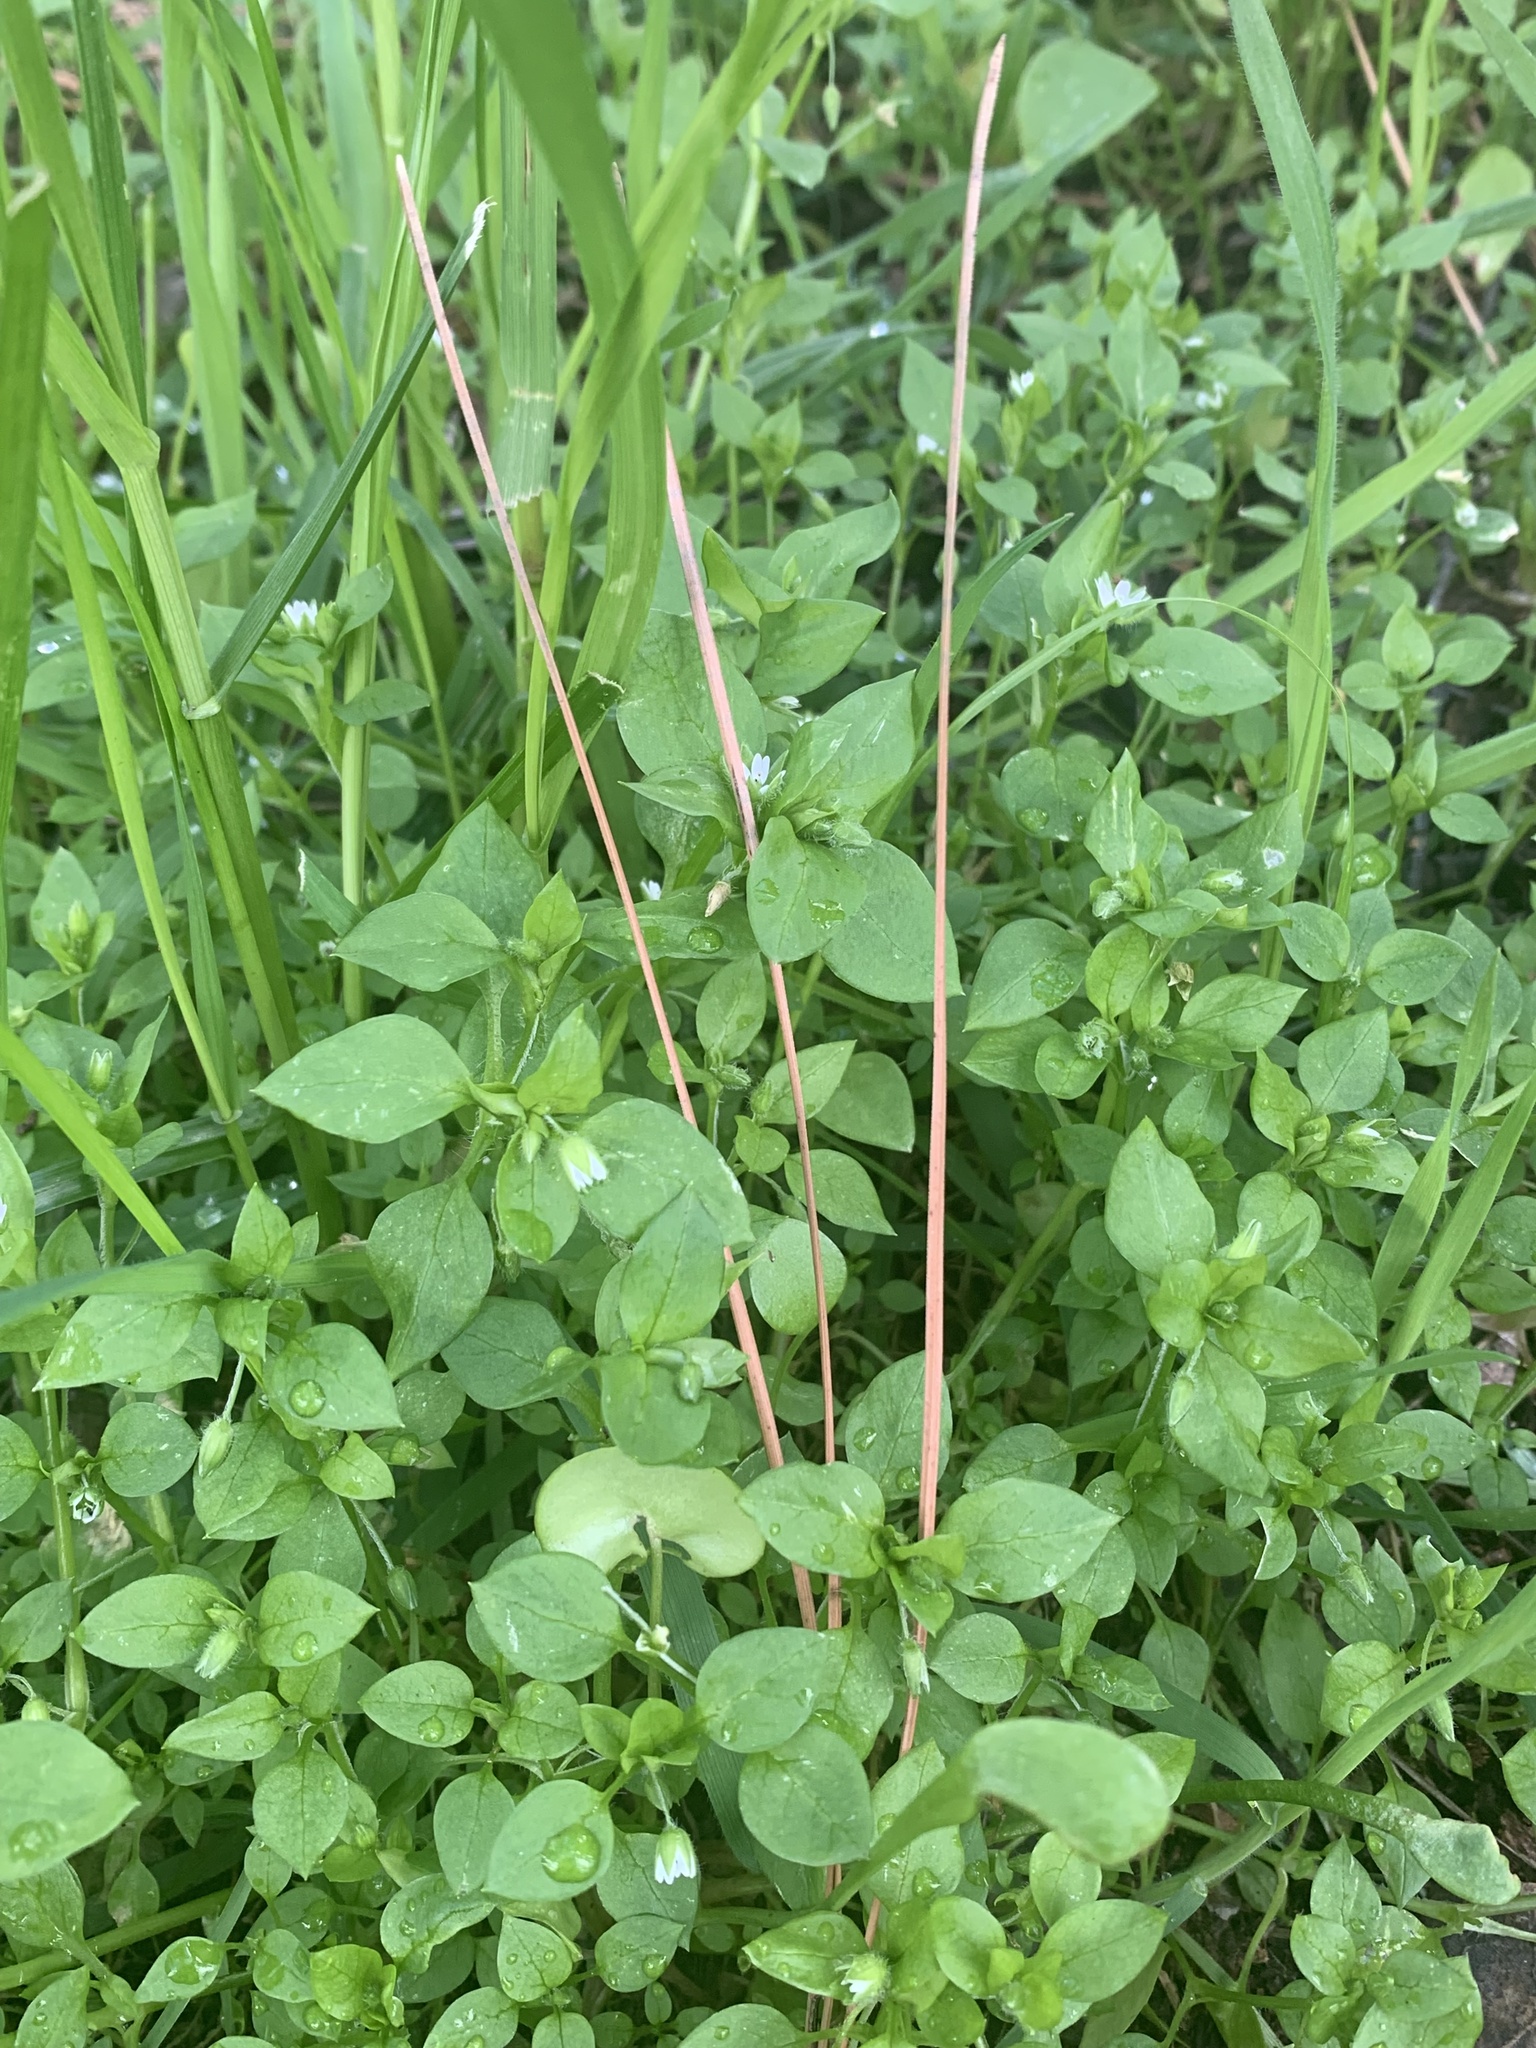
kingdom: Plantae
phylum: Tracheophyta
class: Magnoliopsida
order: Caryophyllales
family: Caryophyllaceae
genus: Stellaria
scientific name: Stellaria media
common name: Common chickweed
